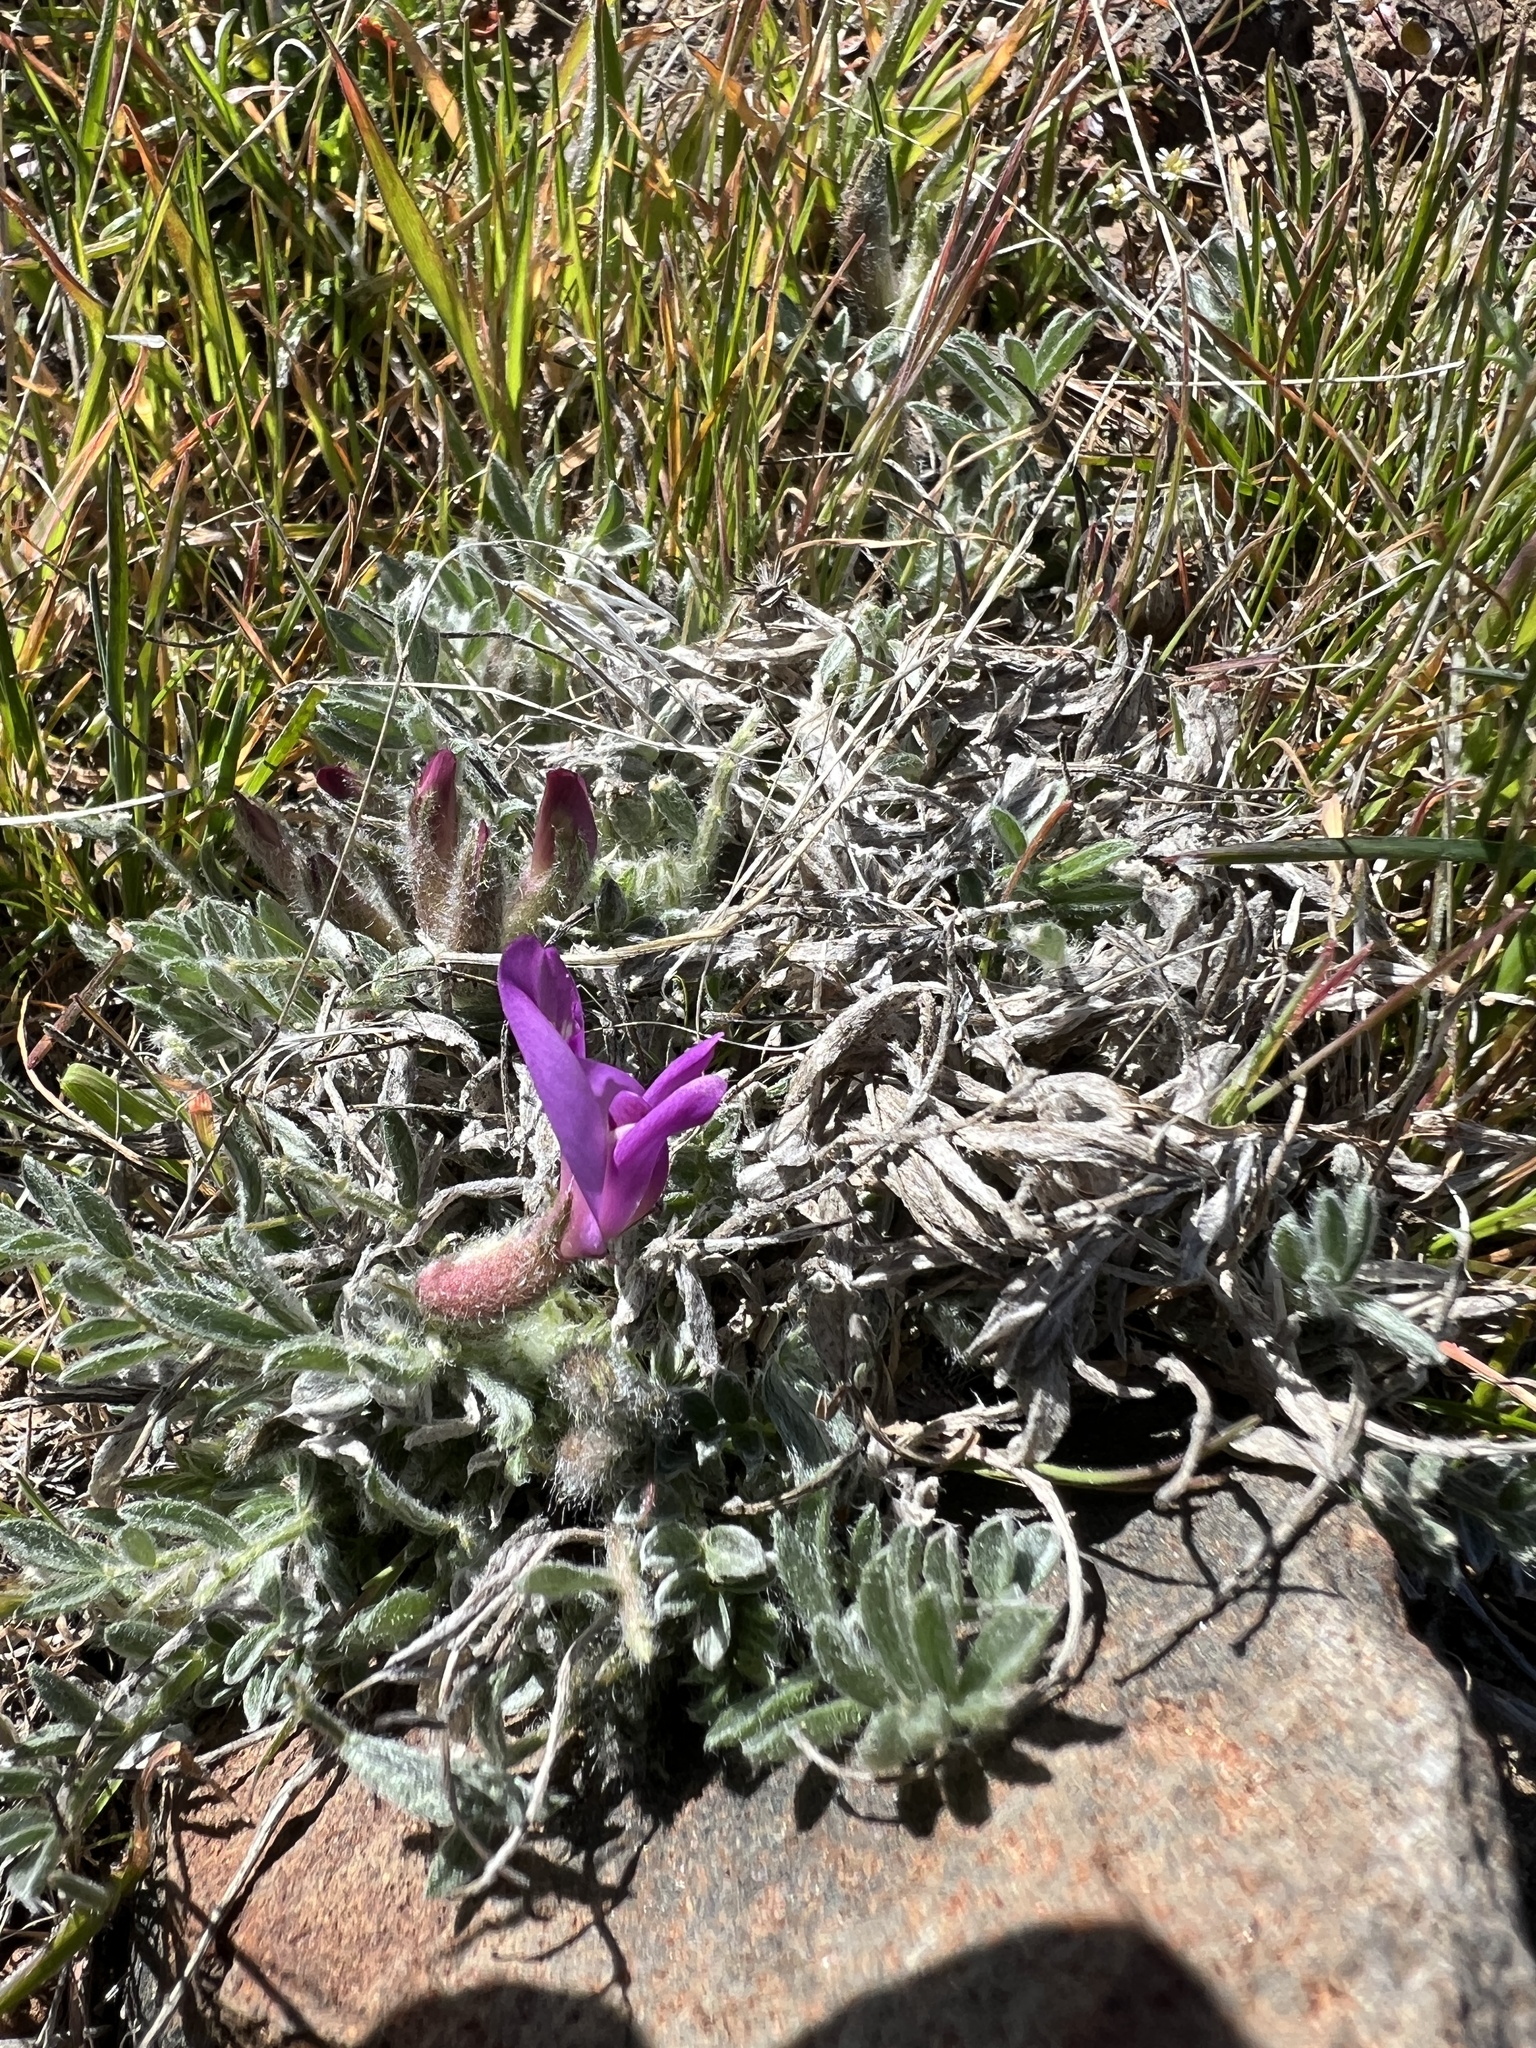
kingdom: Plantae
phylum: Tracheophyta
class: Magnoliopsida
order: Fabales
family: Fabaceae
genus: Astragalus
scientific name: Astragalus purshii
